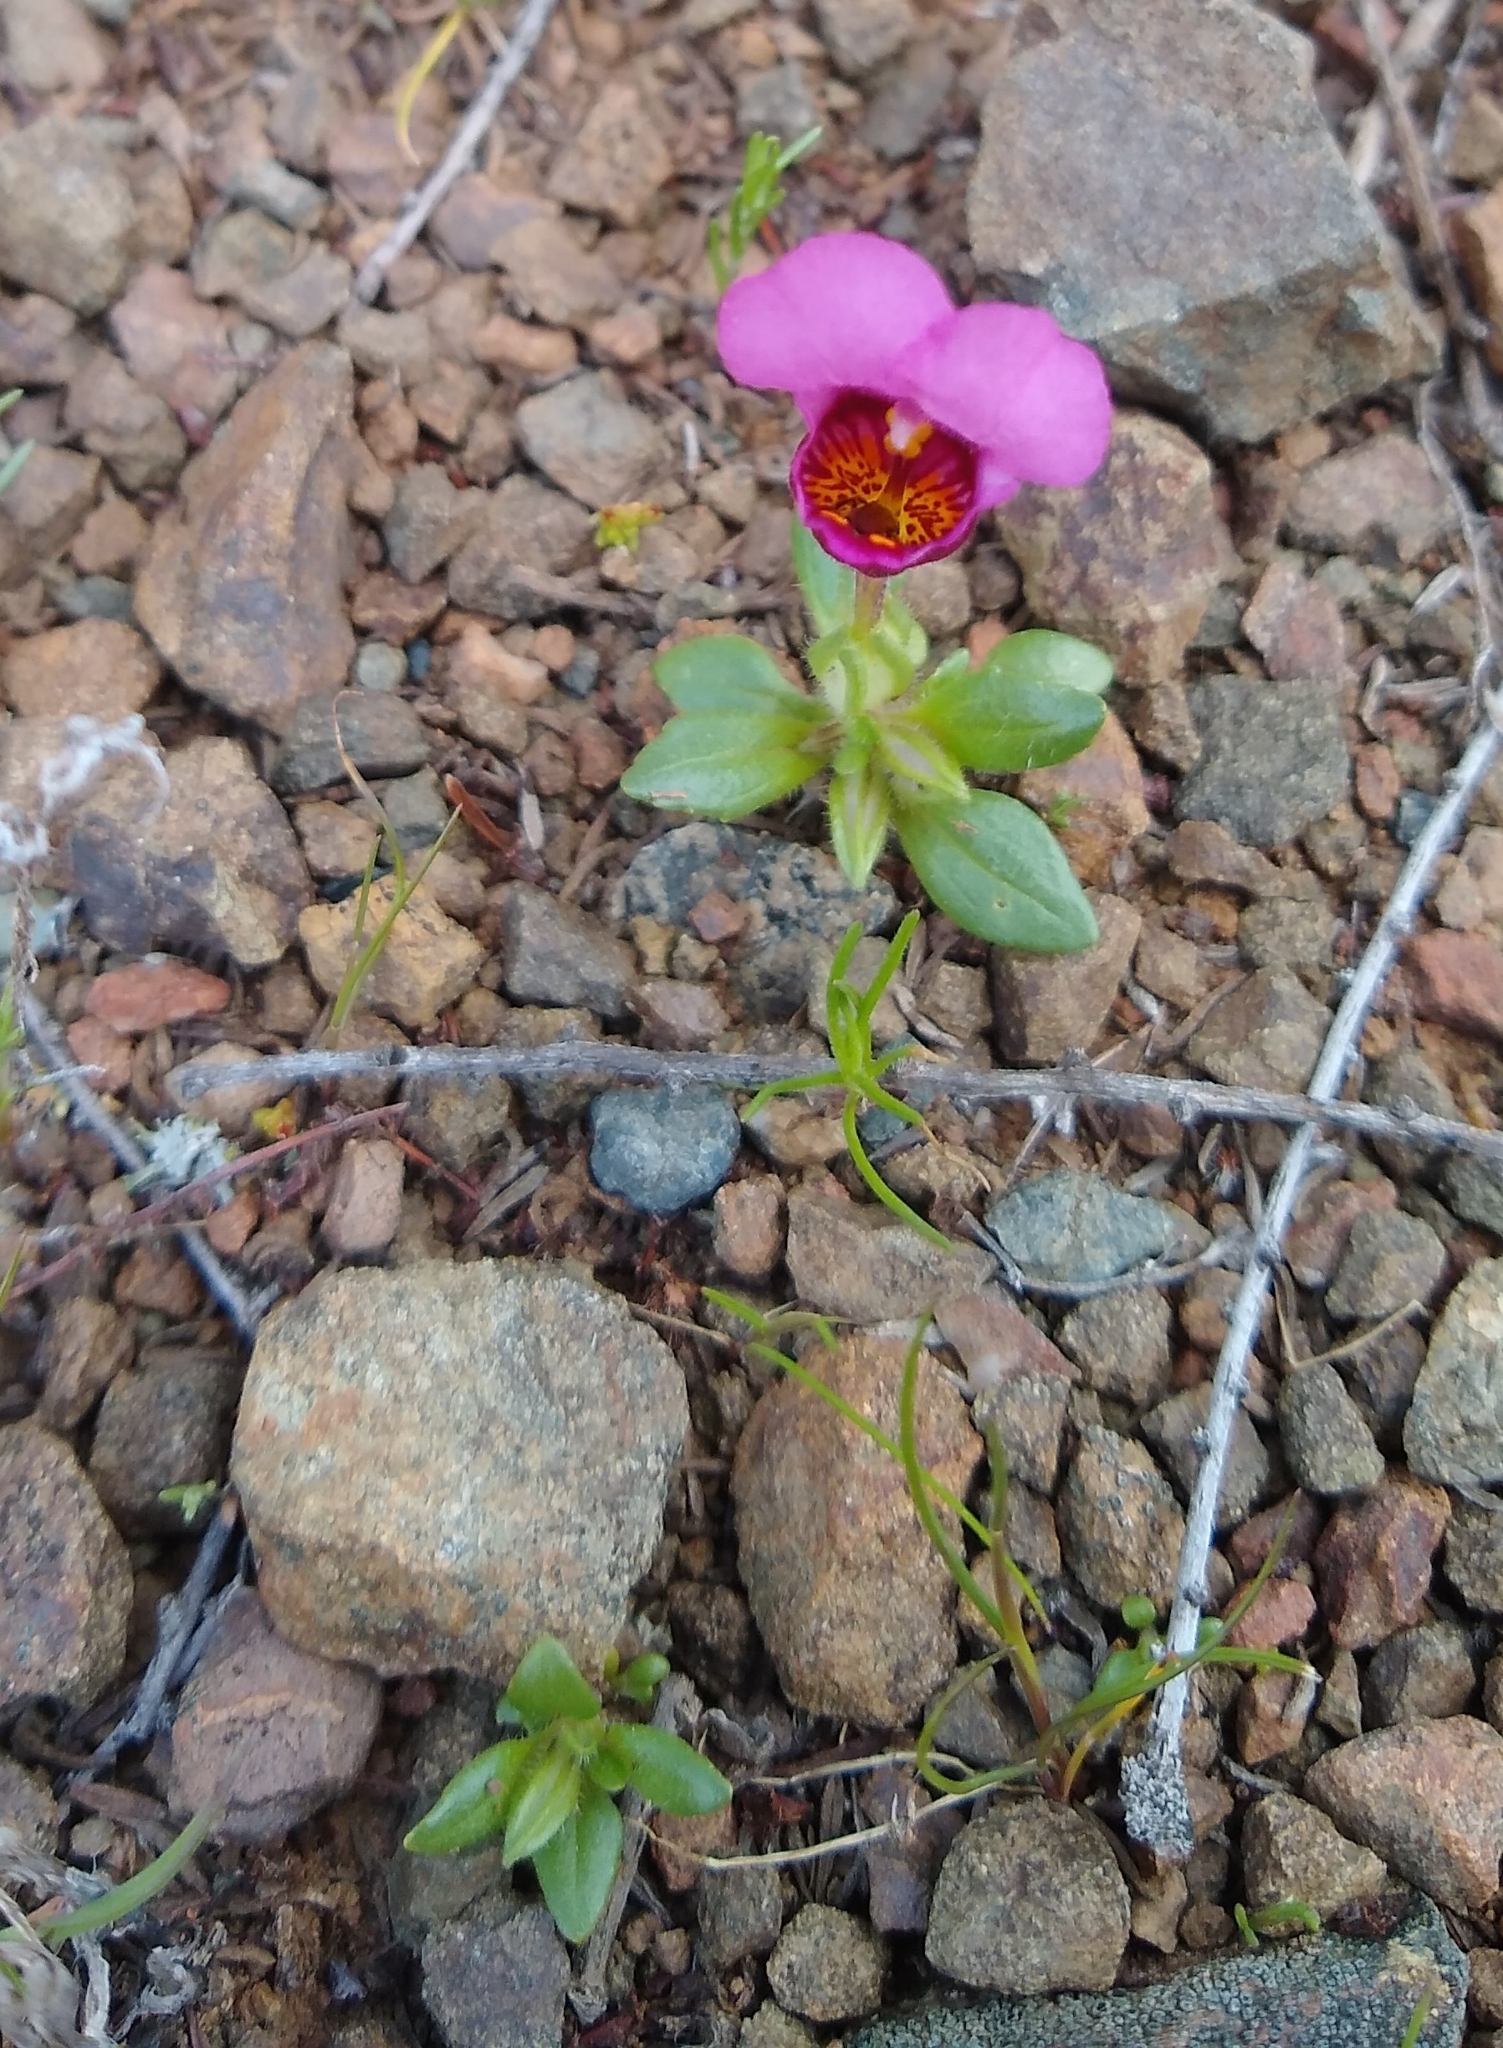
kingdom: Plantae
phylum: Tracheophyta
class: Magnoliopsida
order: Lamiales
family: Phrymaceae
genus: Diplacus
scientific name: Diplacus douglasii
